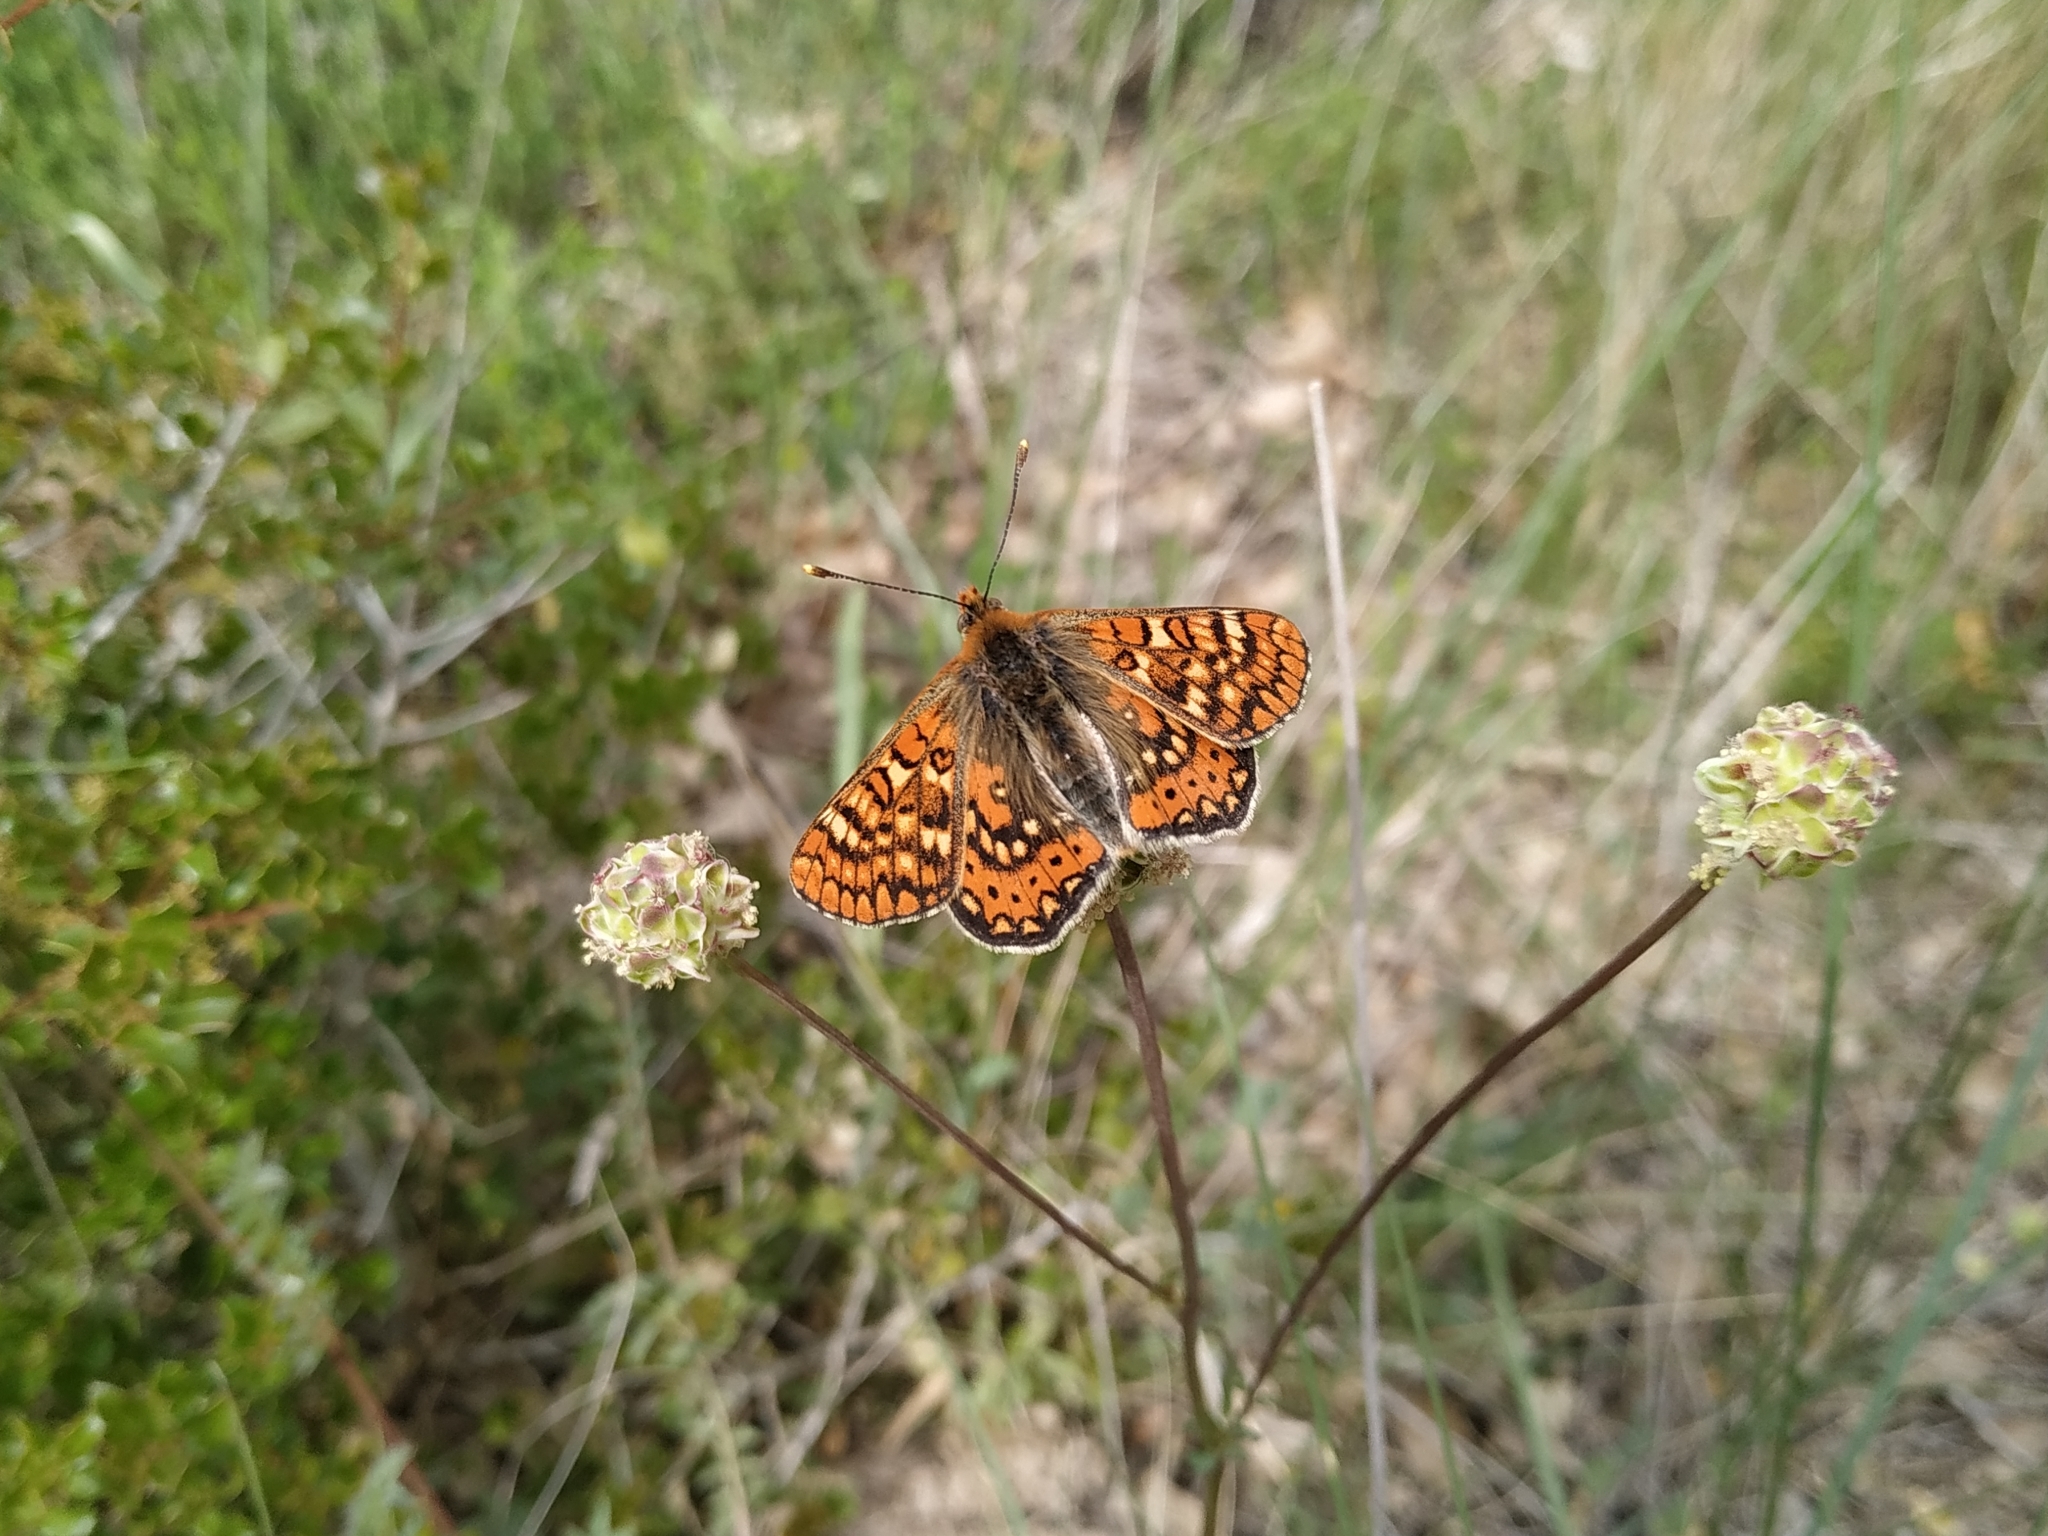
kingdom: Animalia
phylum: Arthropoda
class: Insecta
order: Lepidoptera
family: Nymphalidae
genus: Euphydryas
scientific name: Euphydryas aurinia
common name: Marsh fritillary
